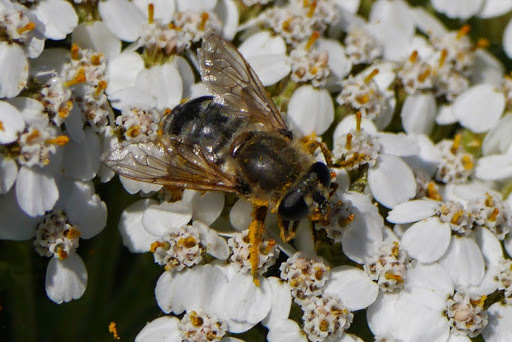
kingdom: Animalia
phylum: Arthropoda
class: Insecta
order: Diptera
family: Syrphidae
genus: Polydontomyia
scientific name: Polydontomyia curvipes
